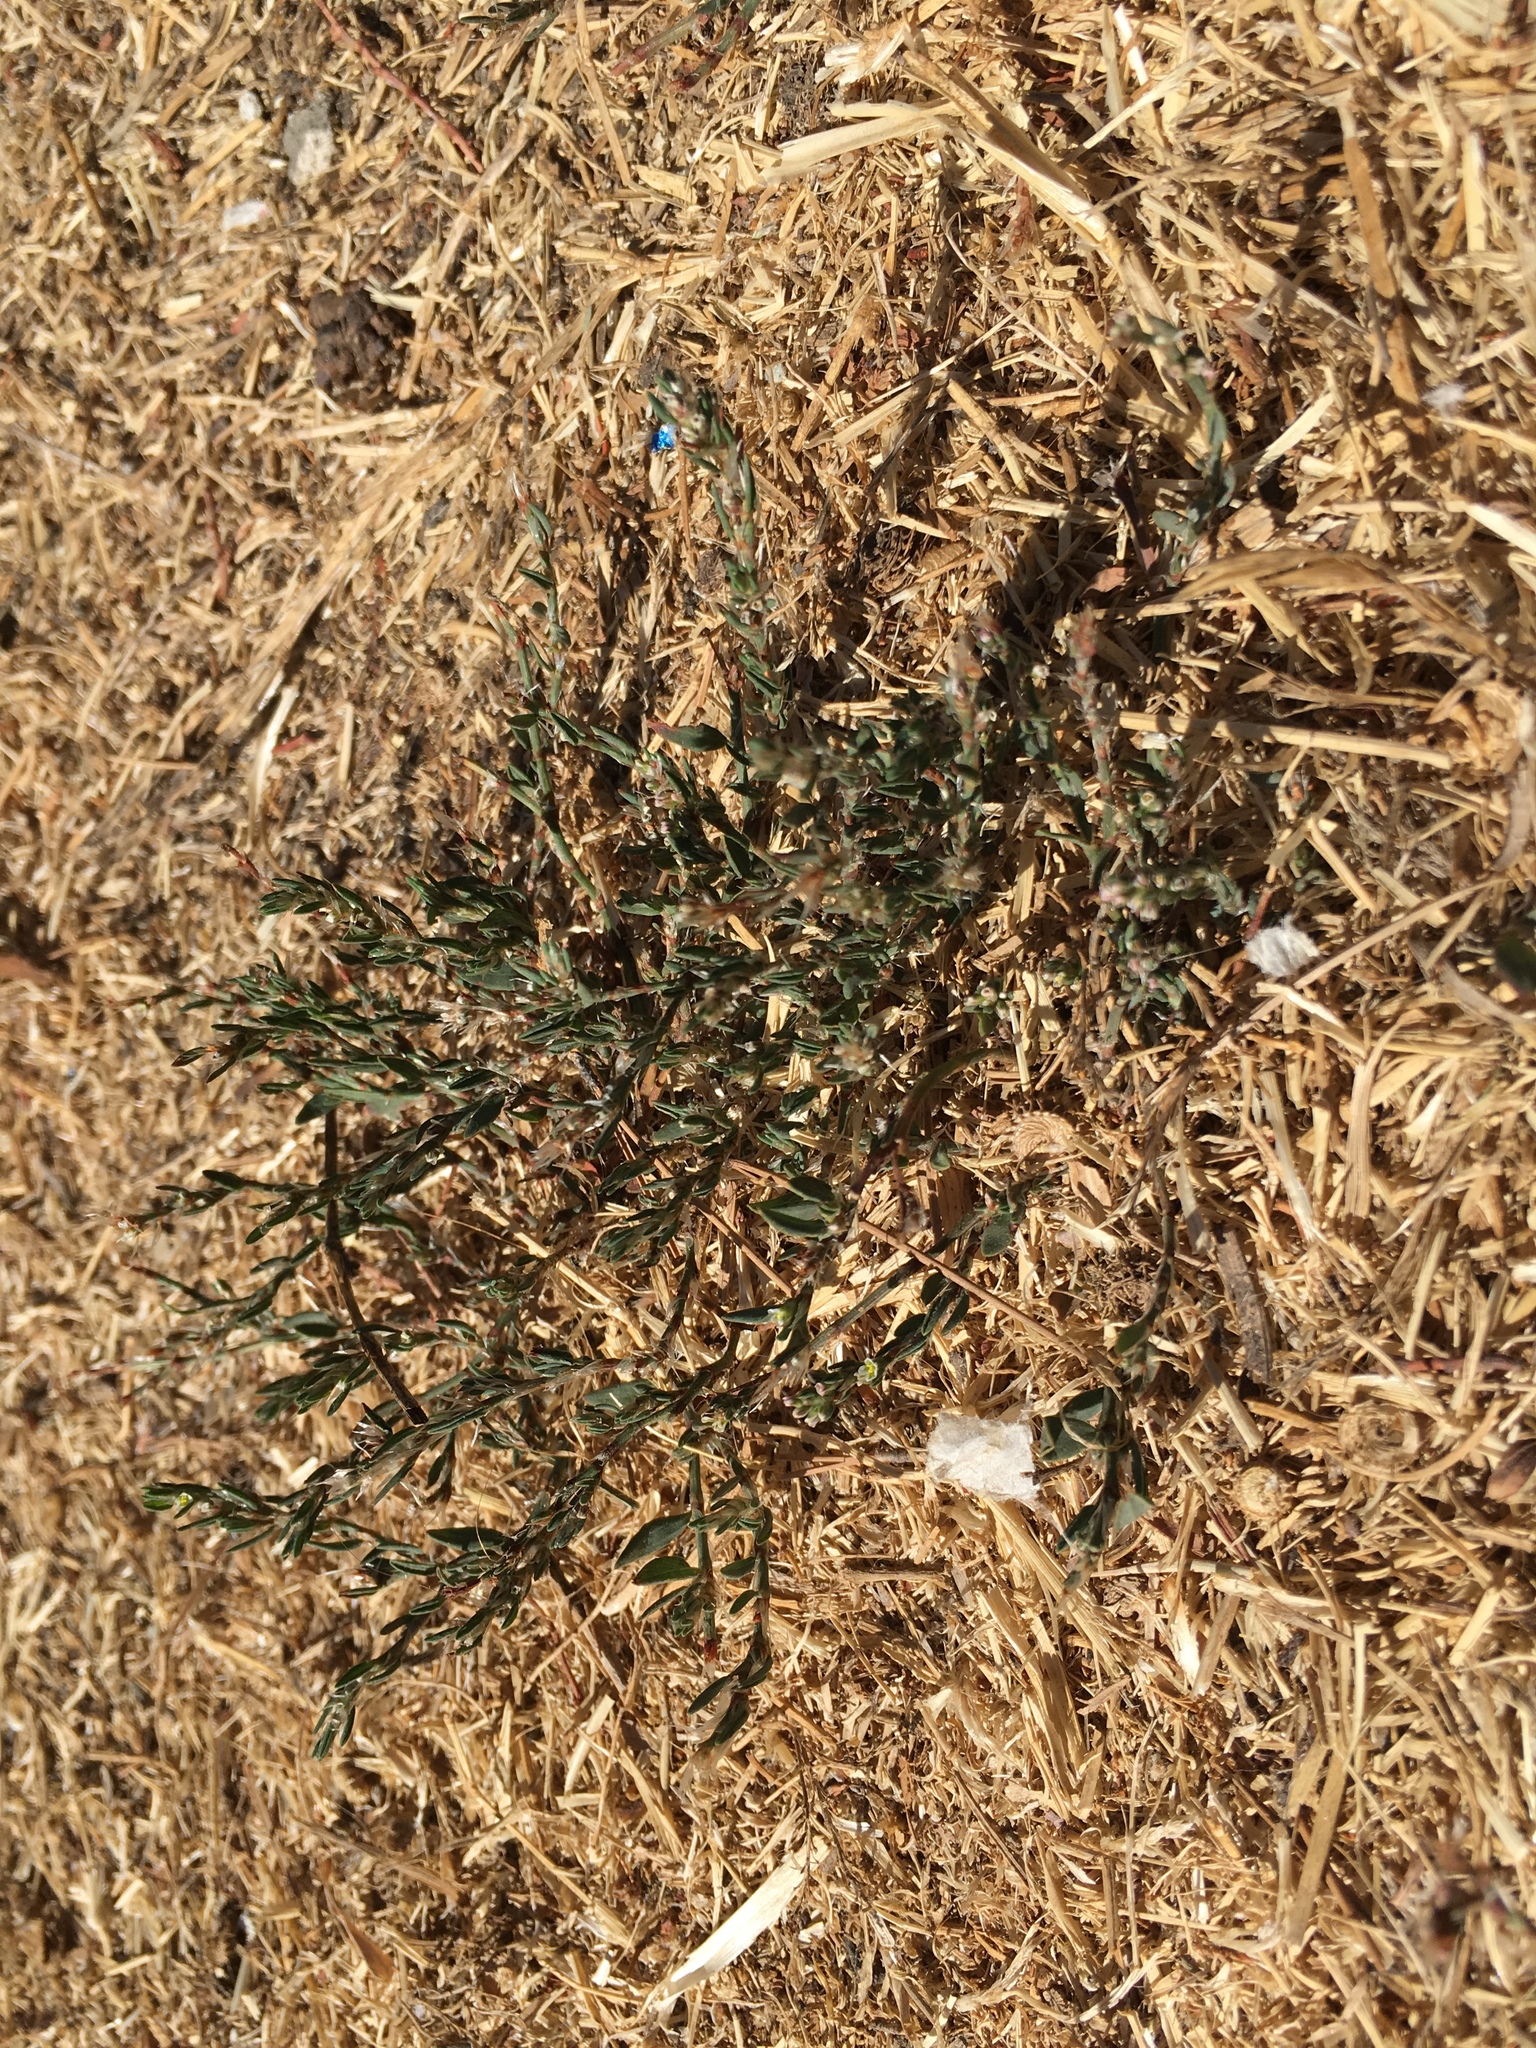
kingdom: Plantae
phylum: Tracheophyta
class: Magnoliopsida
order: Caryophyllales
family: Polygonaceae
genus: Polygonum
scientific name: Polygonum aviculare
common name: Prostrate knotweed
